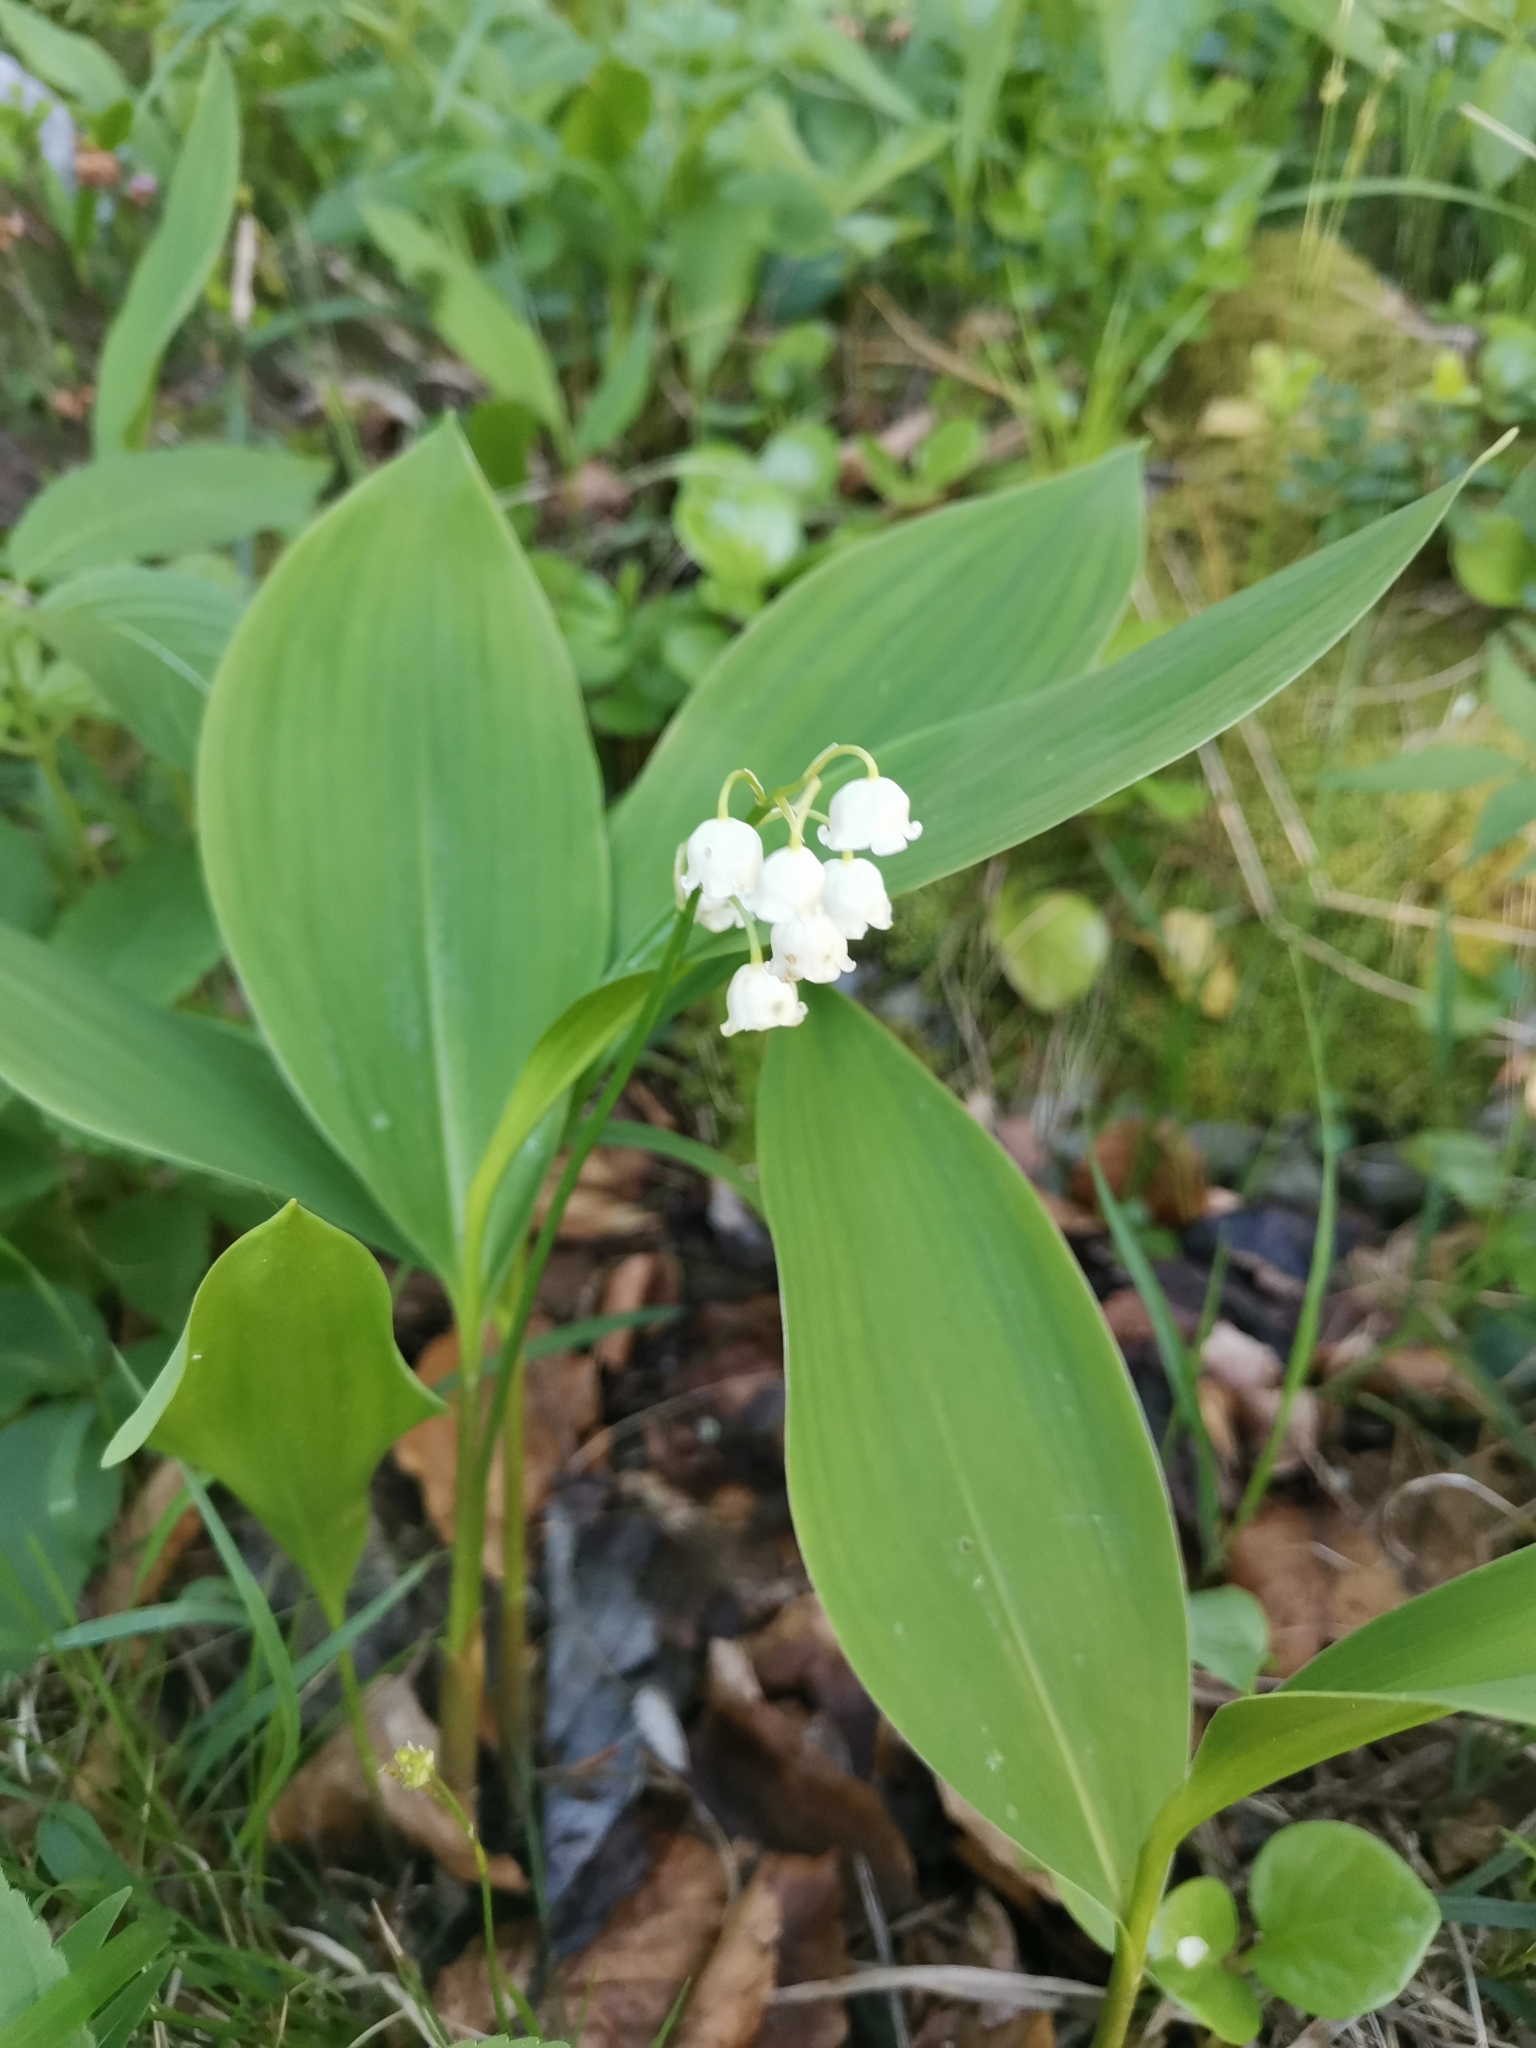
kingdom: Plantae
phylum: Tracheophyta
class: Liliopsida
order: Asparagales
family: Asparagaceae
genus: Convallaria
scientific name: Convallaria majalis
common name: Lily-of-the-valley
